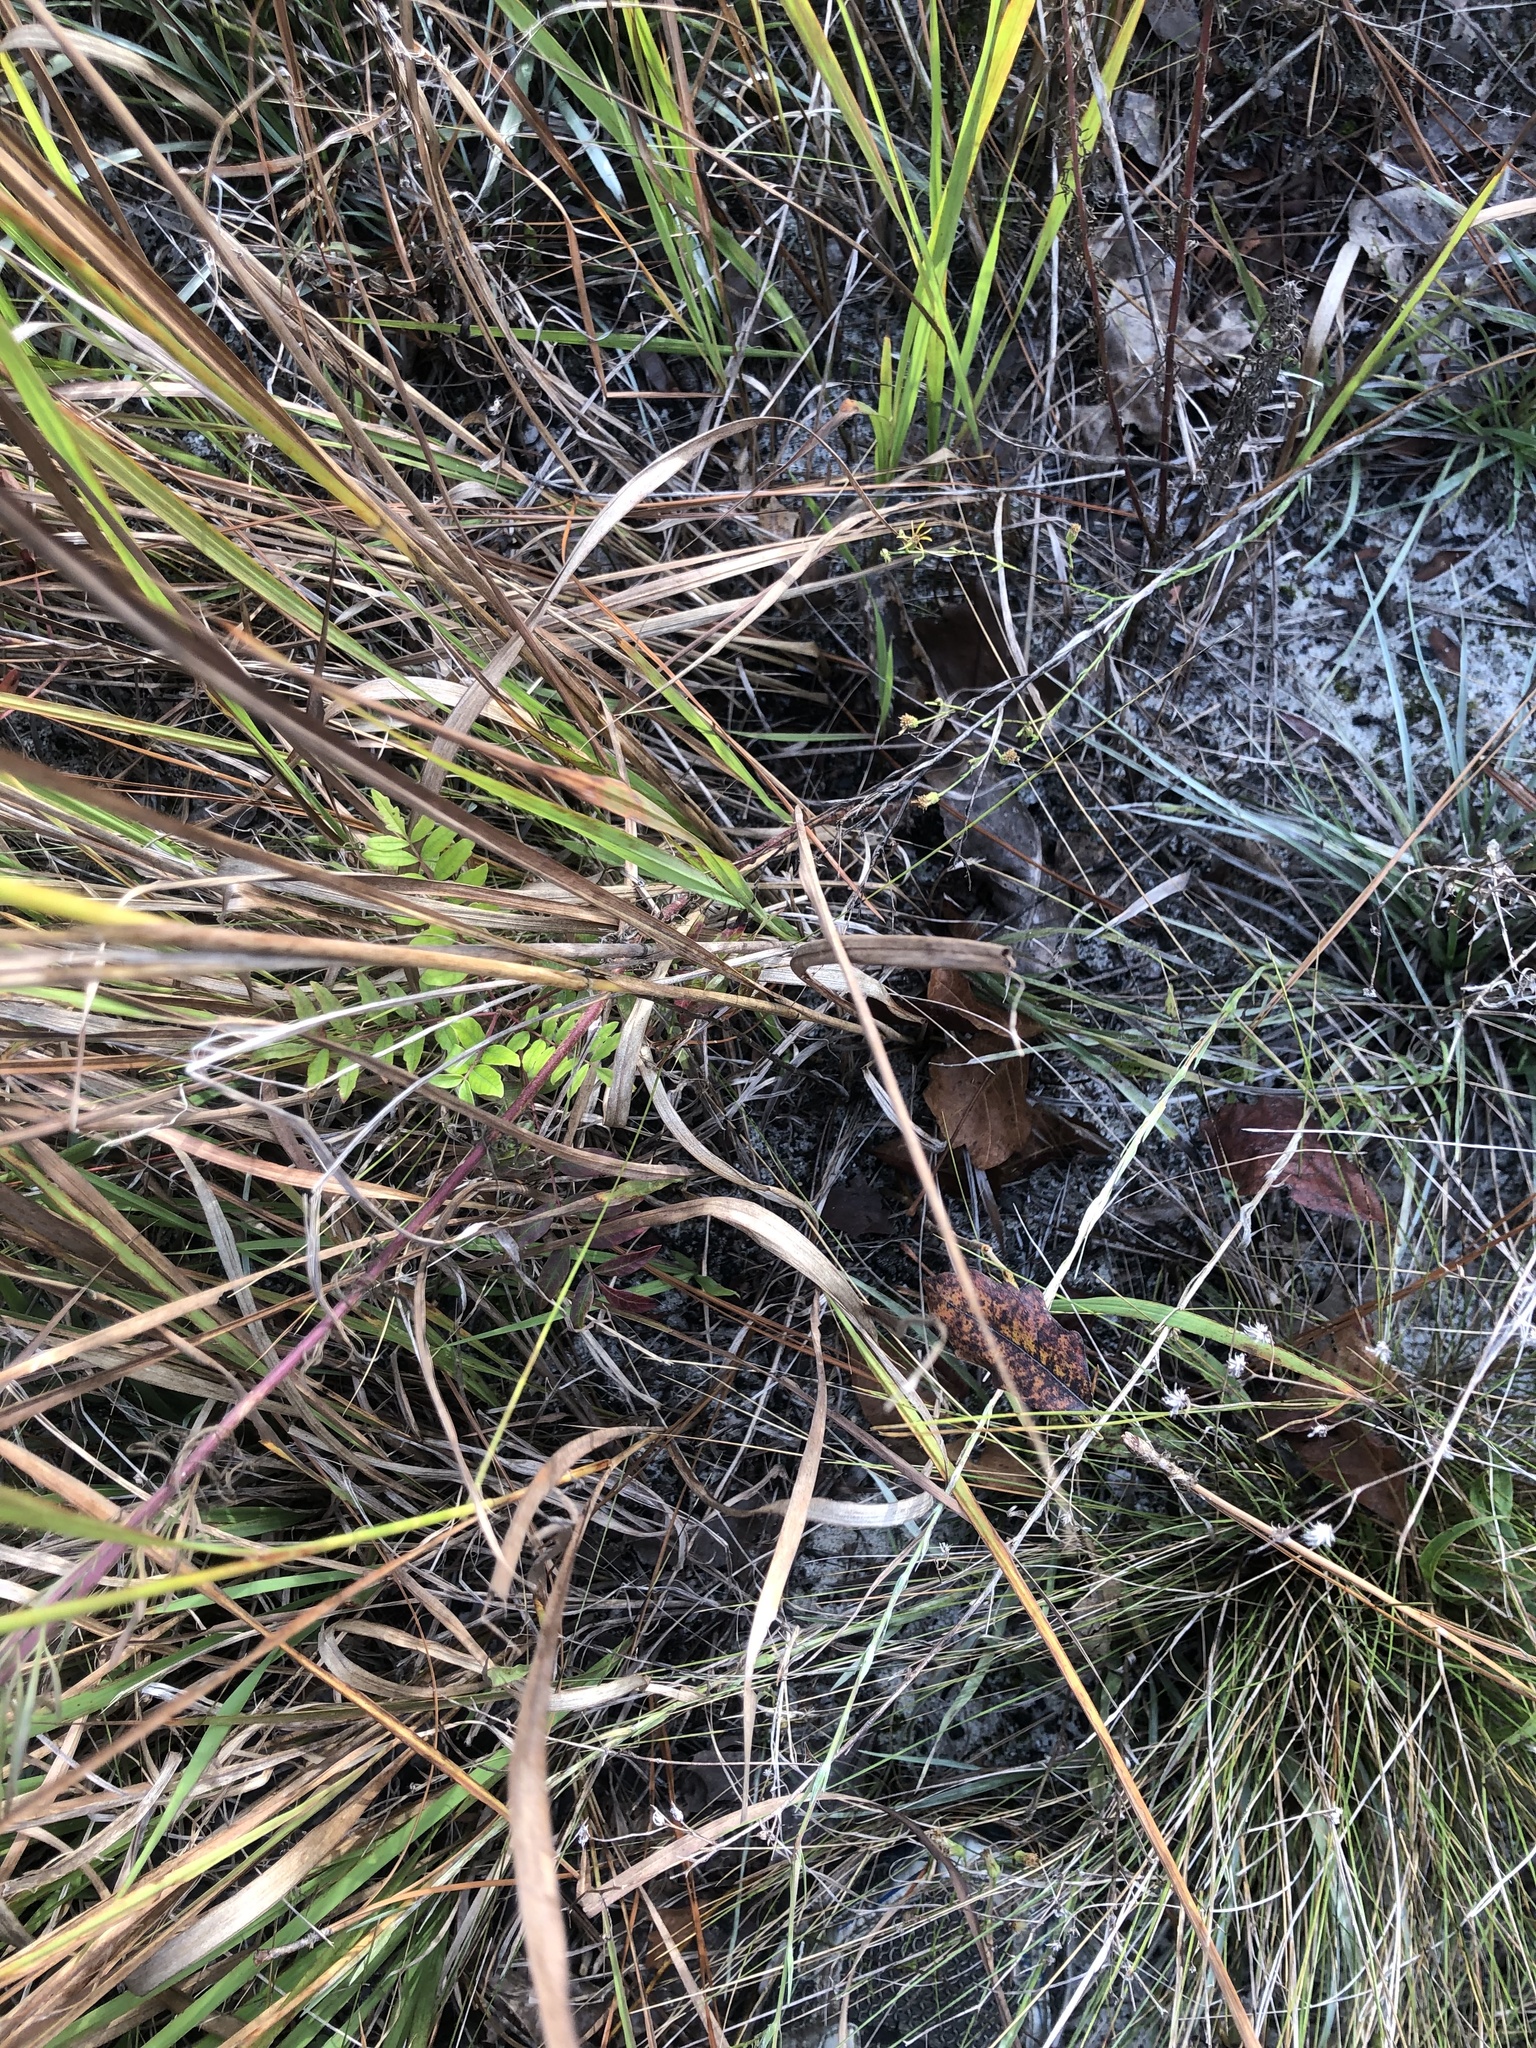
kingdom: Plantae
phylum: Tracheophyta
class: Liliopsida
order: Poales
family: Poaceae
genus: Sorghastrum
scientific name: Sorghastrum nutans
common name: Indian grass
